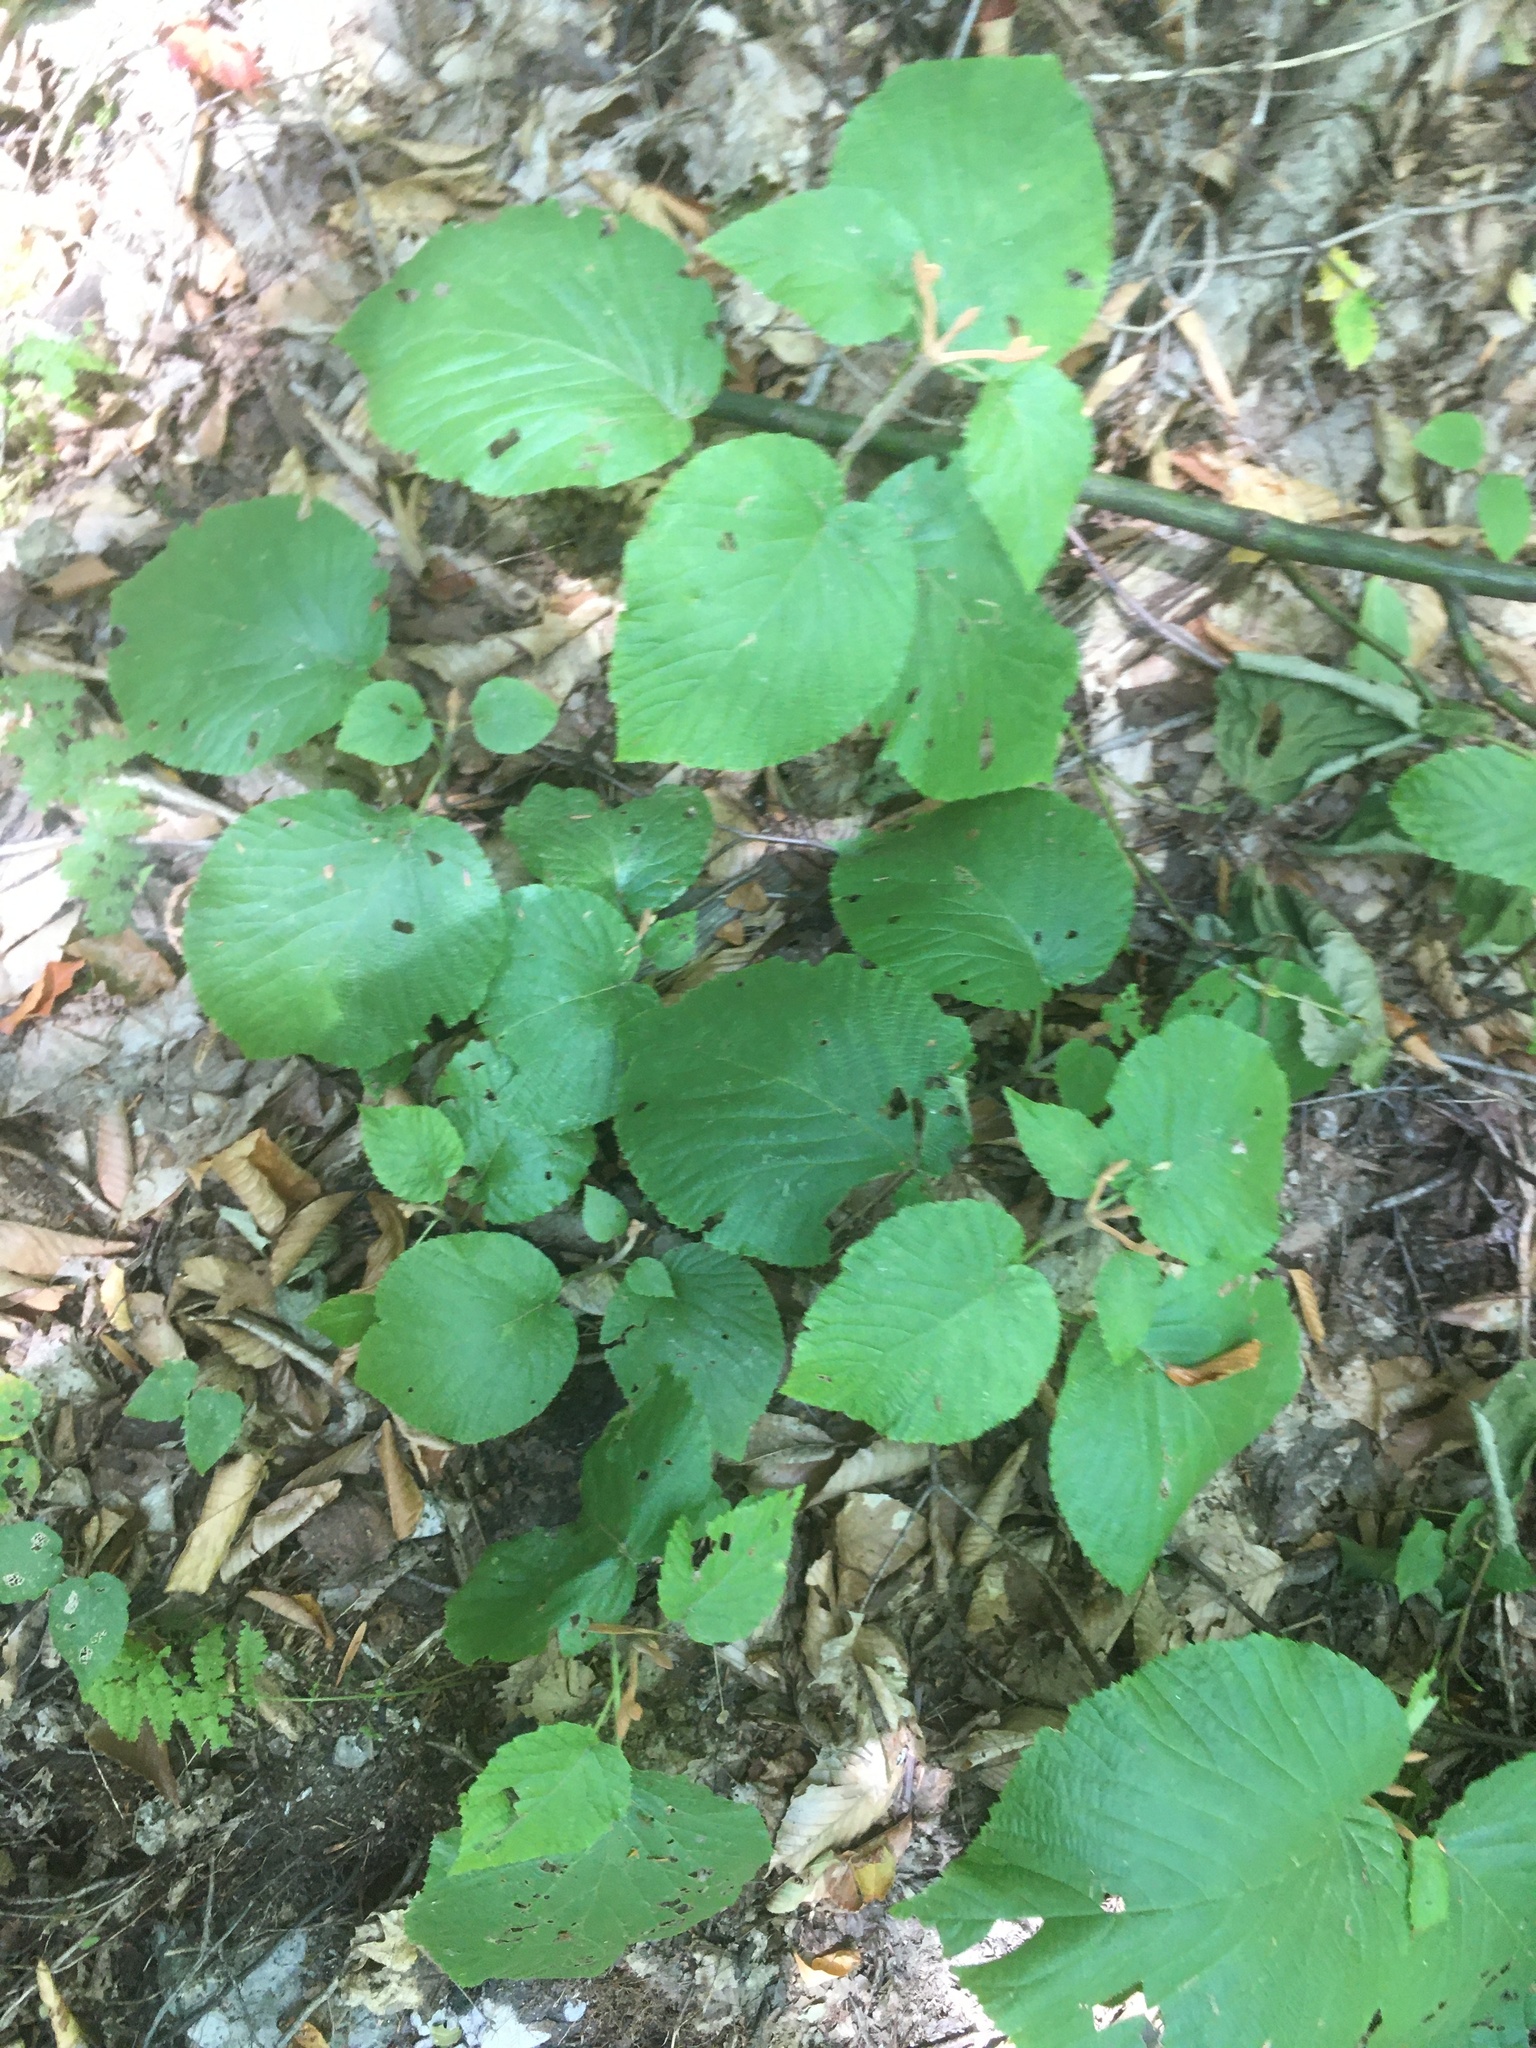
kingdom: Plantae
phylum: Tracheophyta
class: Magnoliopsida
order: Dipsacales
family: Viburnaceae
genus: Viburnum
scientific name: Viburnum lantanoides
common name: Hobblebush
